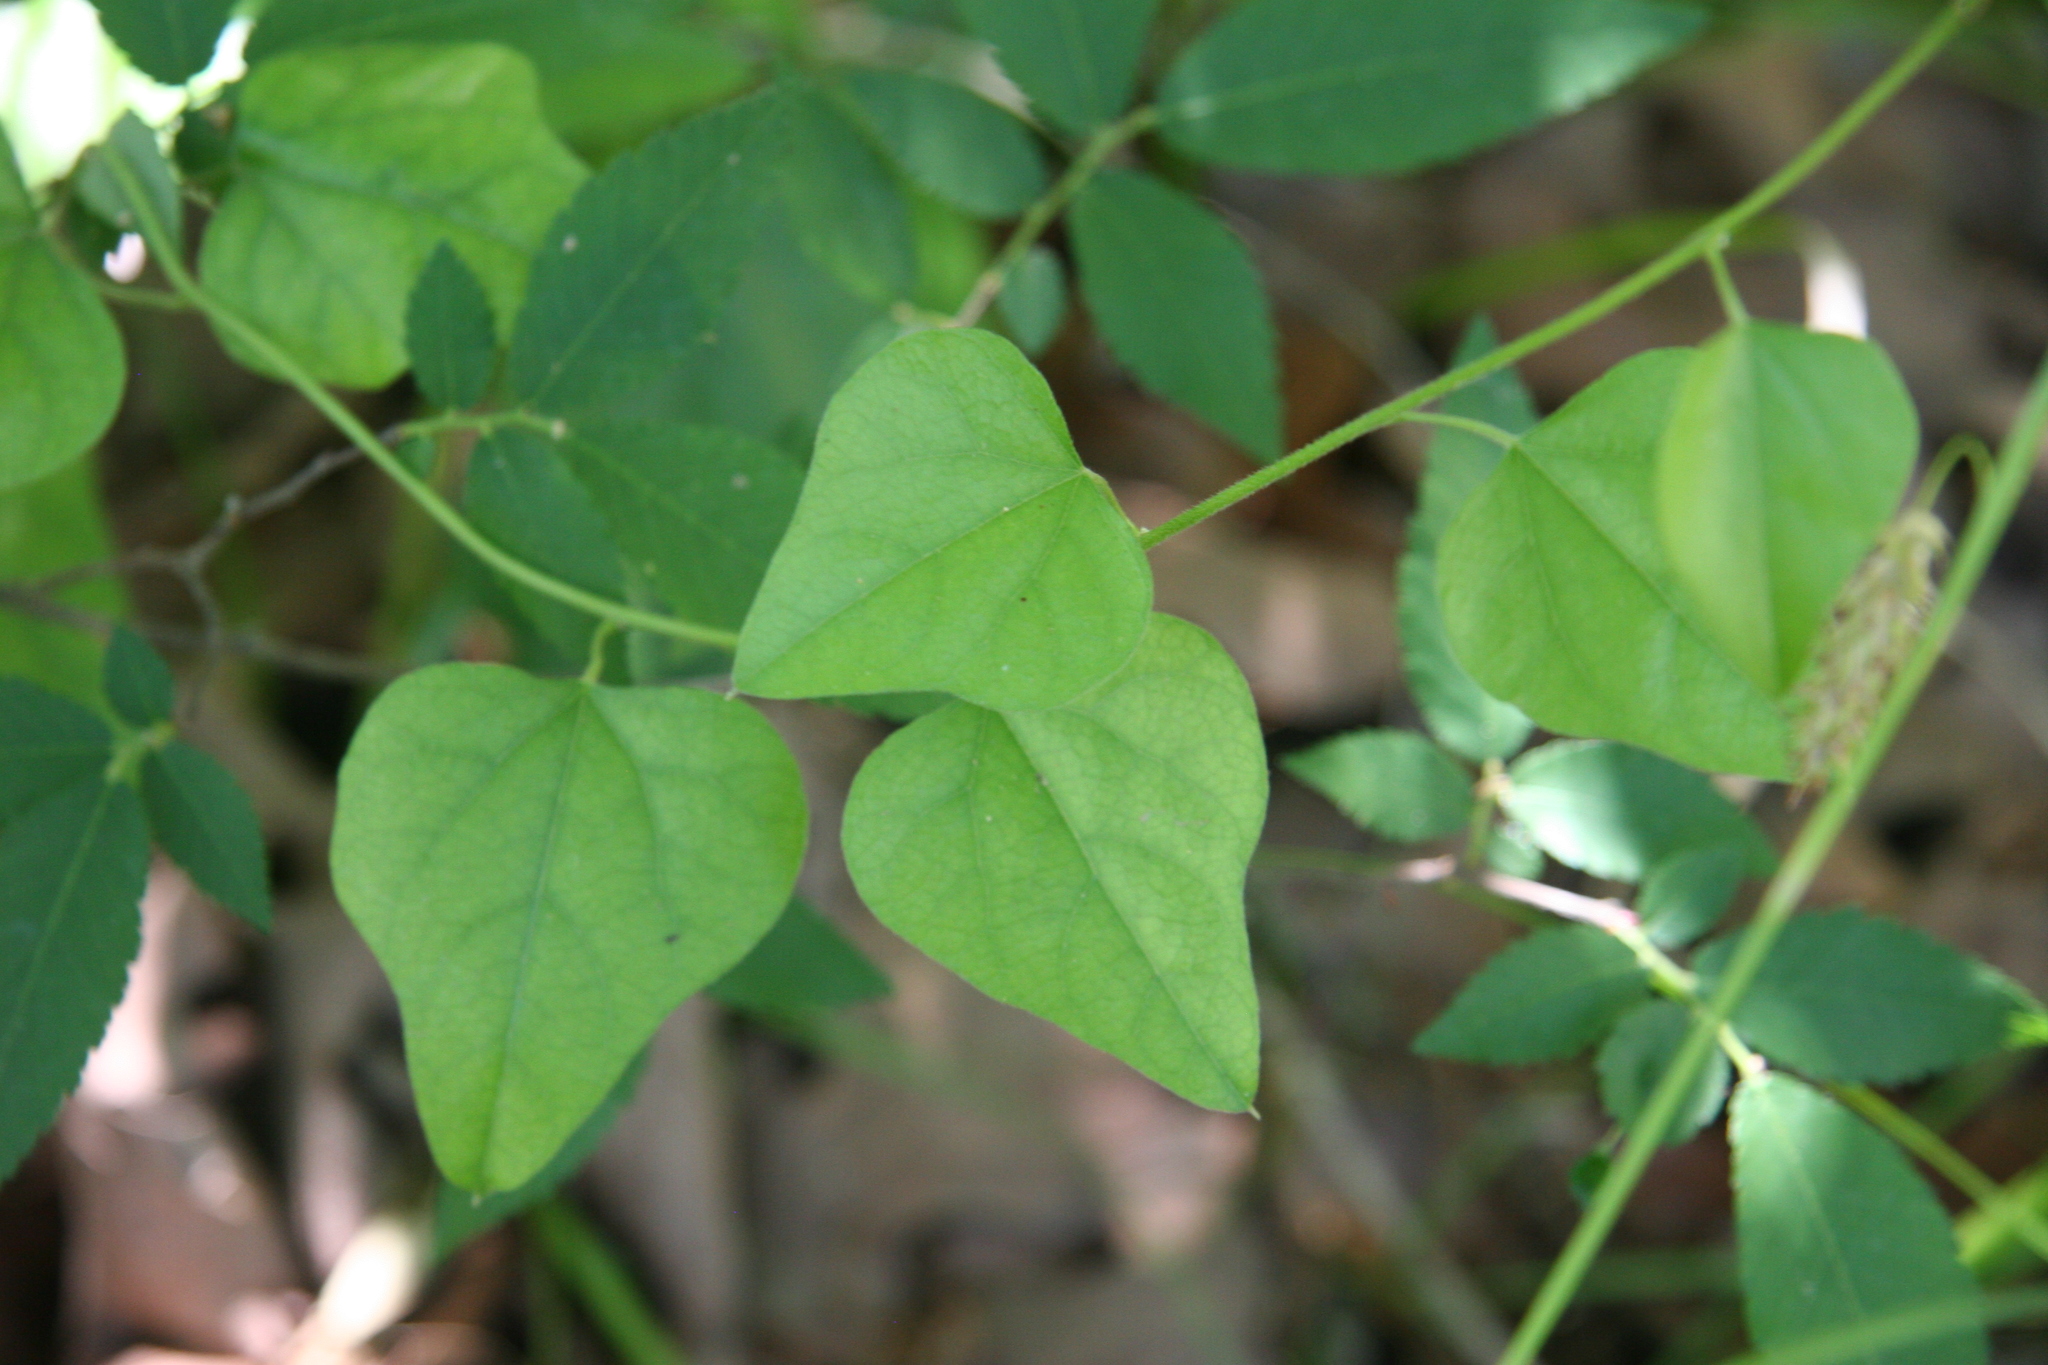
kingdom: Plantae
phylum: Tracheophyta
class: Magnoliopsida
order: Ranunculales
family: Menispermaceae
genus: Cocculus
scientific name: Cocculus carolinus
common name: Carolina moonseed
